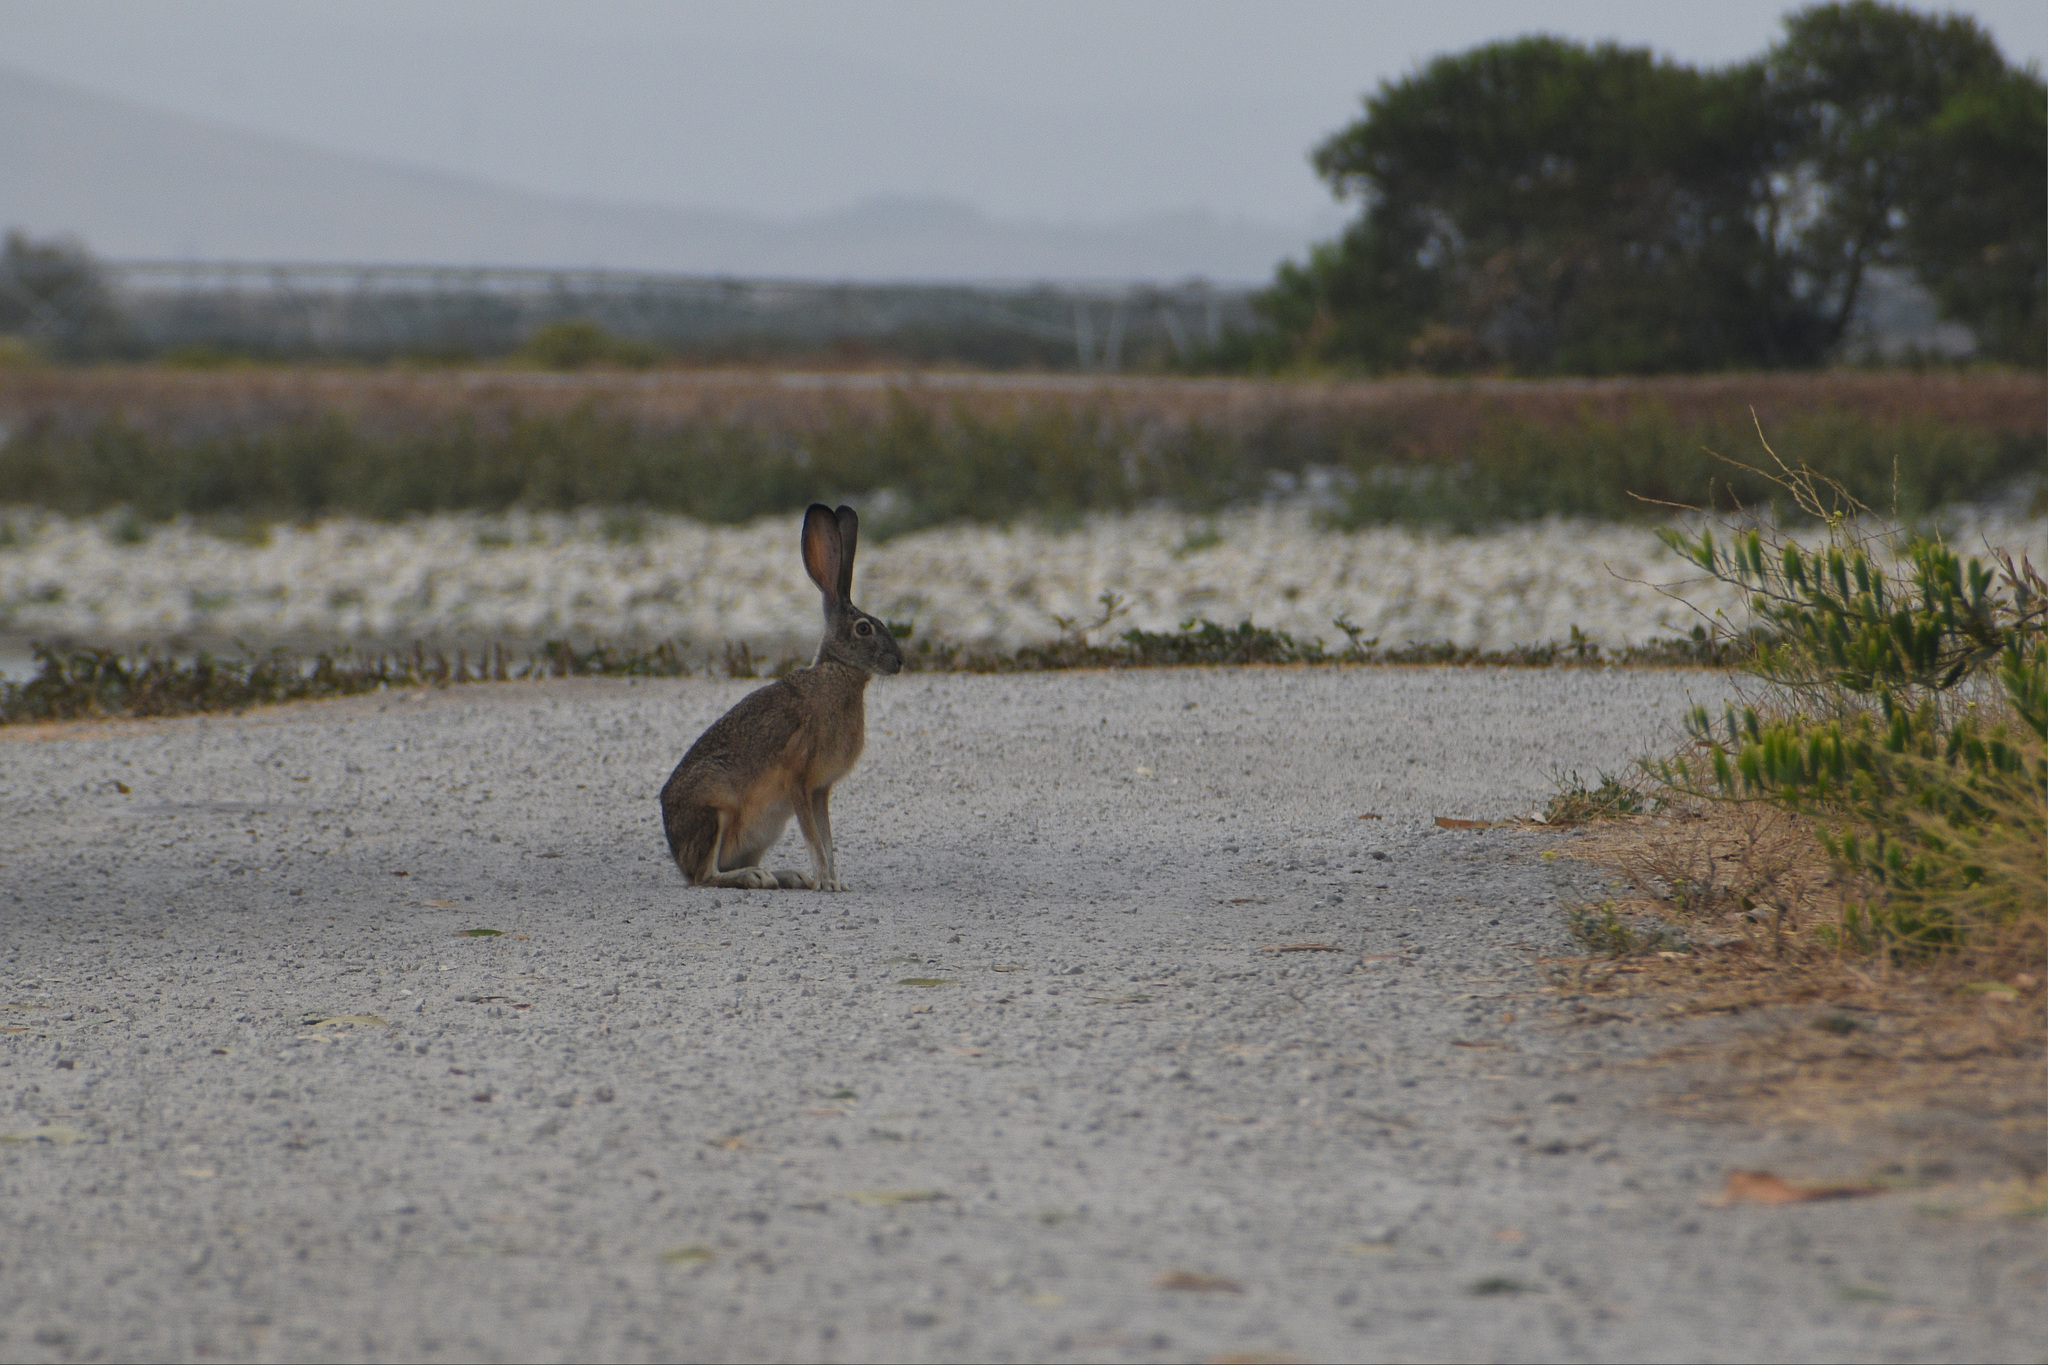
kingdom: Animalia
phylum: Chordata
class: Mammalia
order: Lagomorpha
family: Leporidae
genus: Lepus
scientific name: Lepus californicus
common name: Black-tailed jackrabbit
